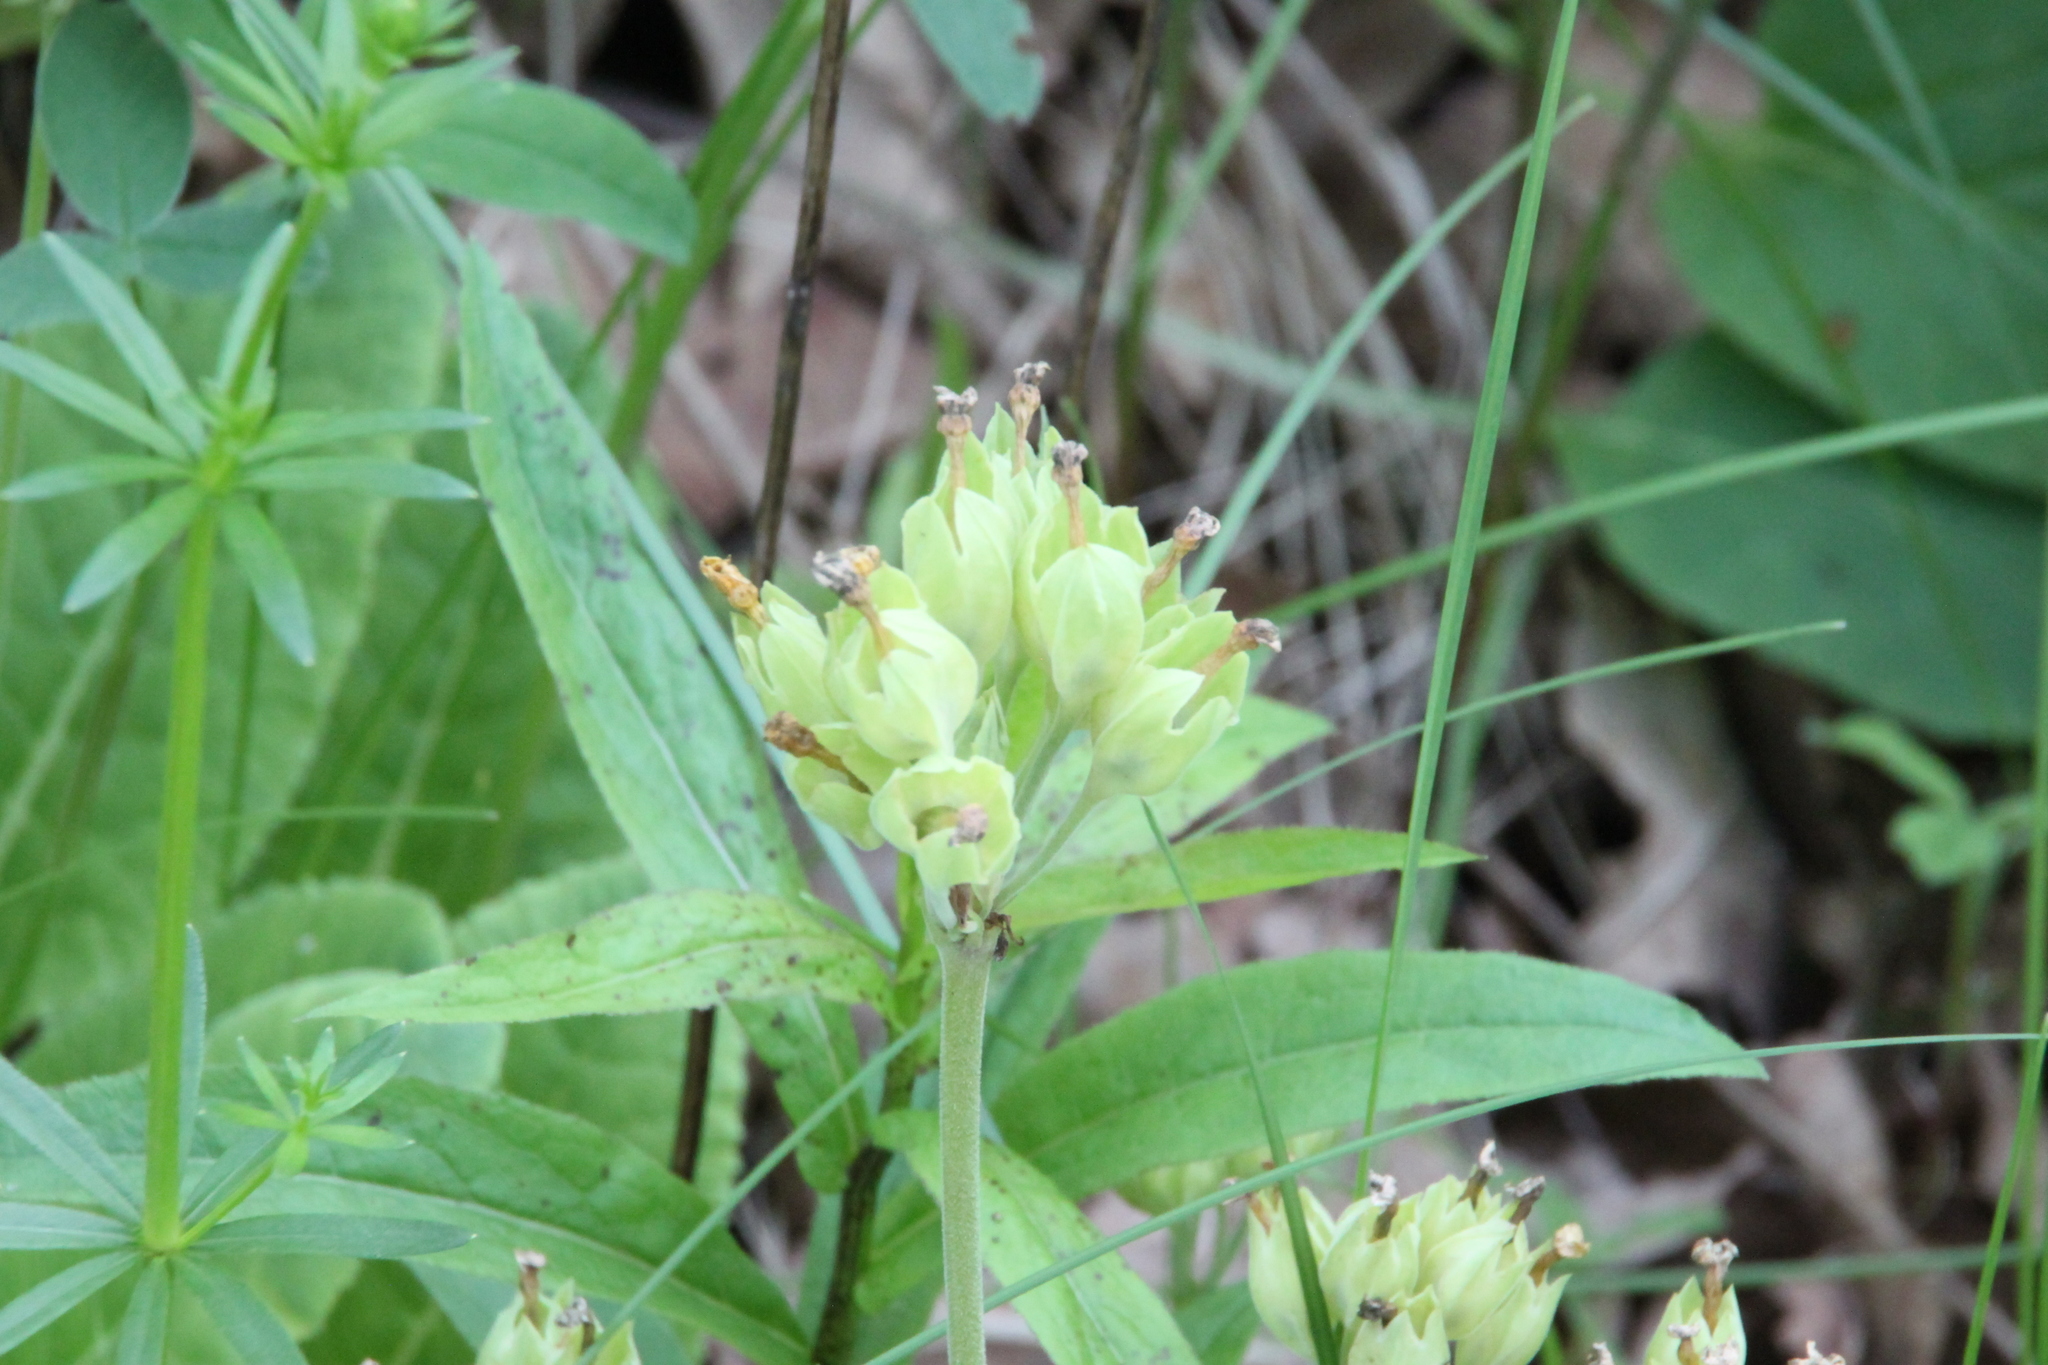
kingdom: Plantae
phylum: Tracheophyta
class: Magnoliopsida
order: Ericales
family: Primulaceae
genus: Primula
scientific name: Primula veris
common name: Cowslip
